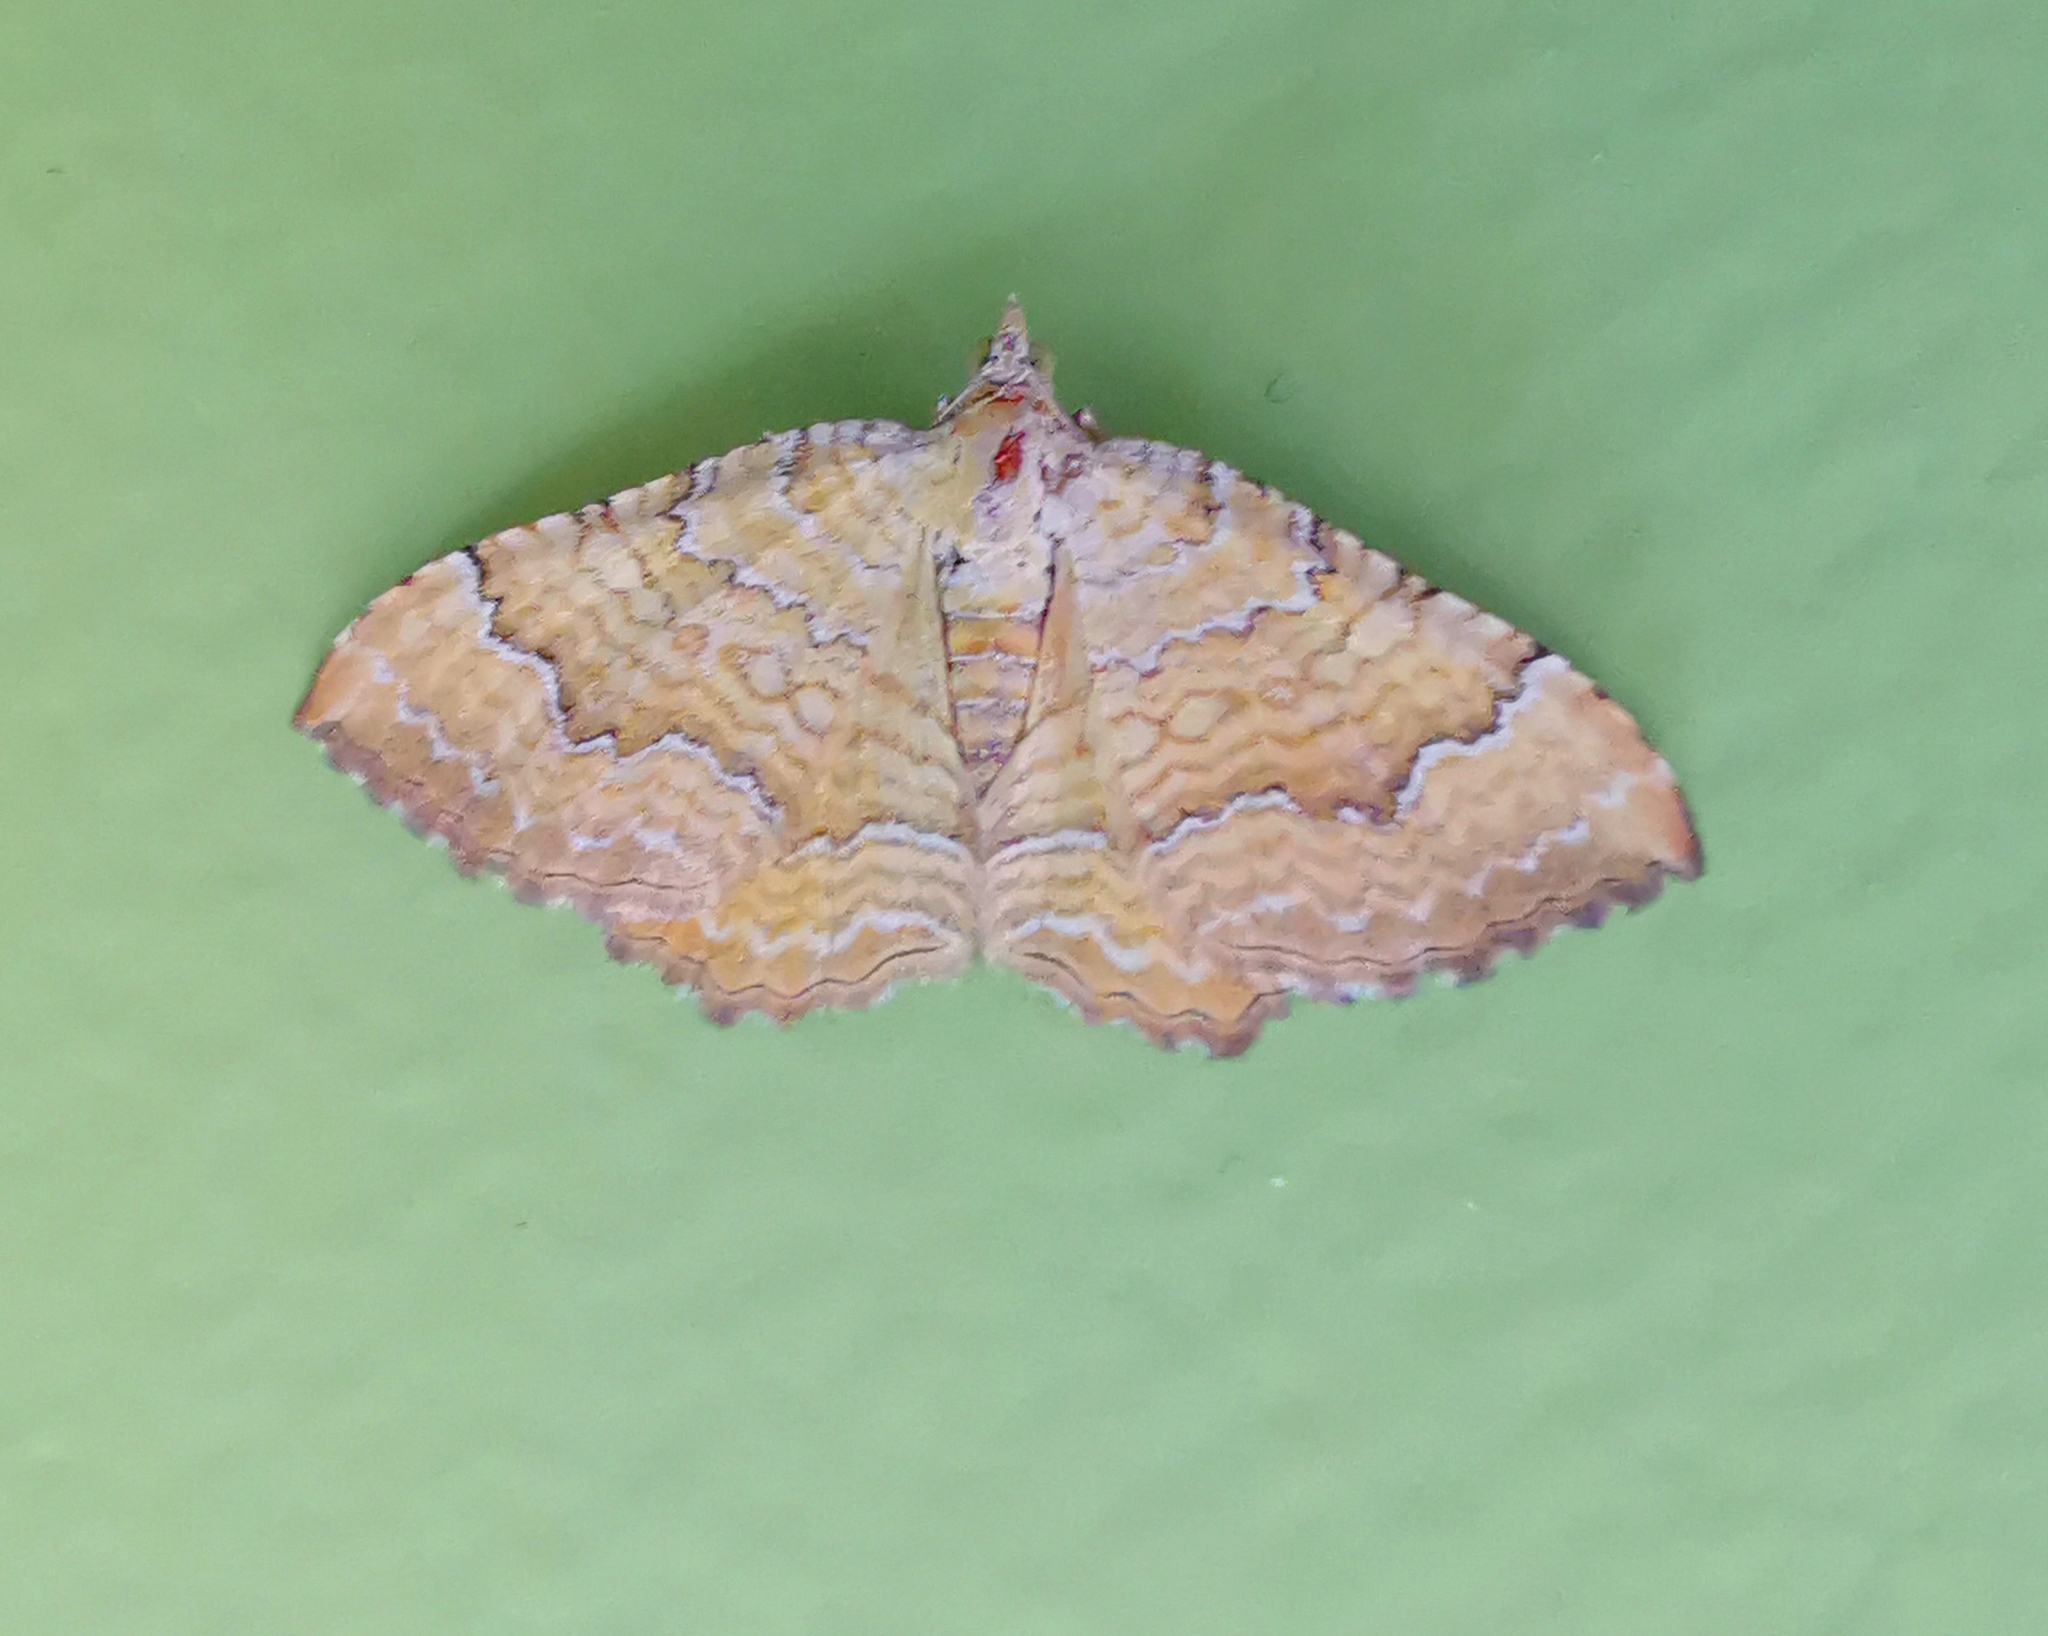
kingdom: Animalia
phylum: Arthropoda
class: Insecta
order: Lepidoptera
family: Geometridae
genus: Camptogramma
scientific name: Camptogramma bilineata
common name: Yellow shell
